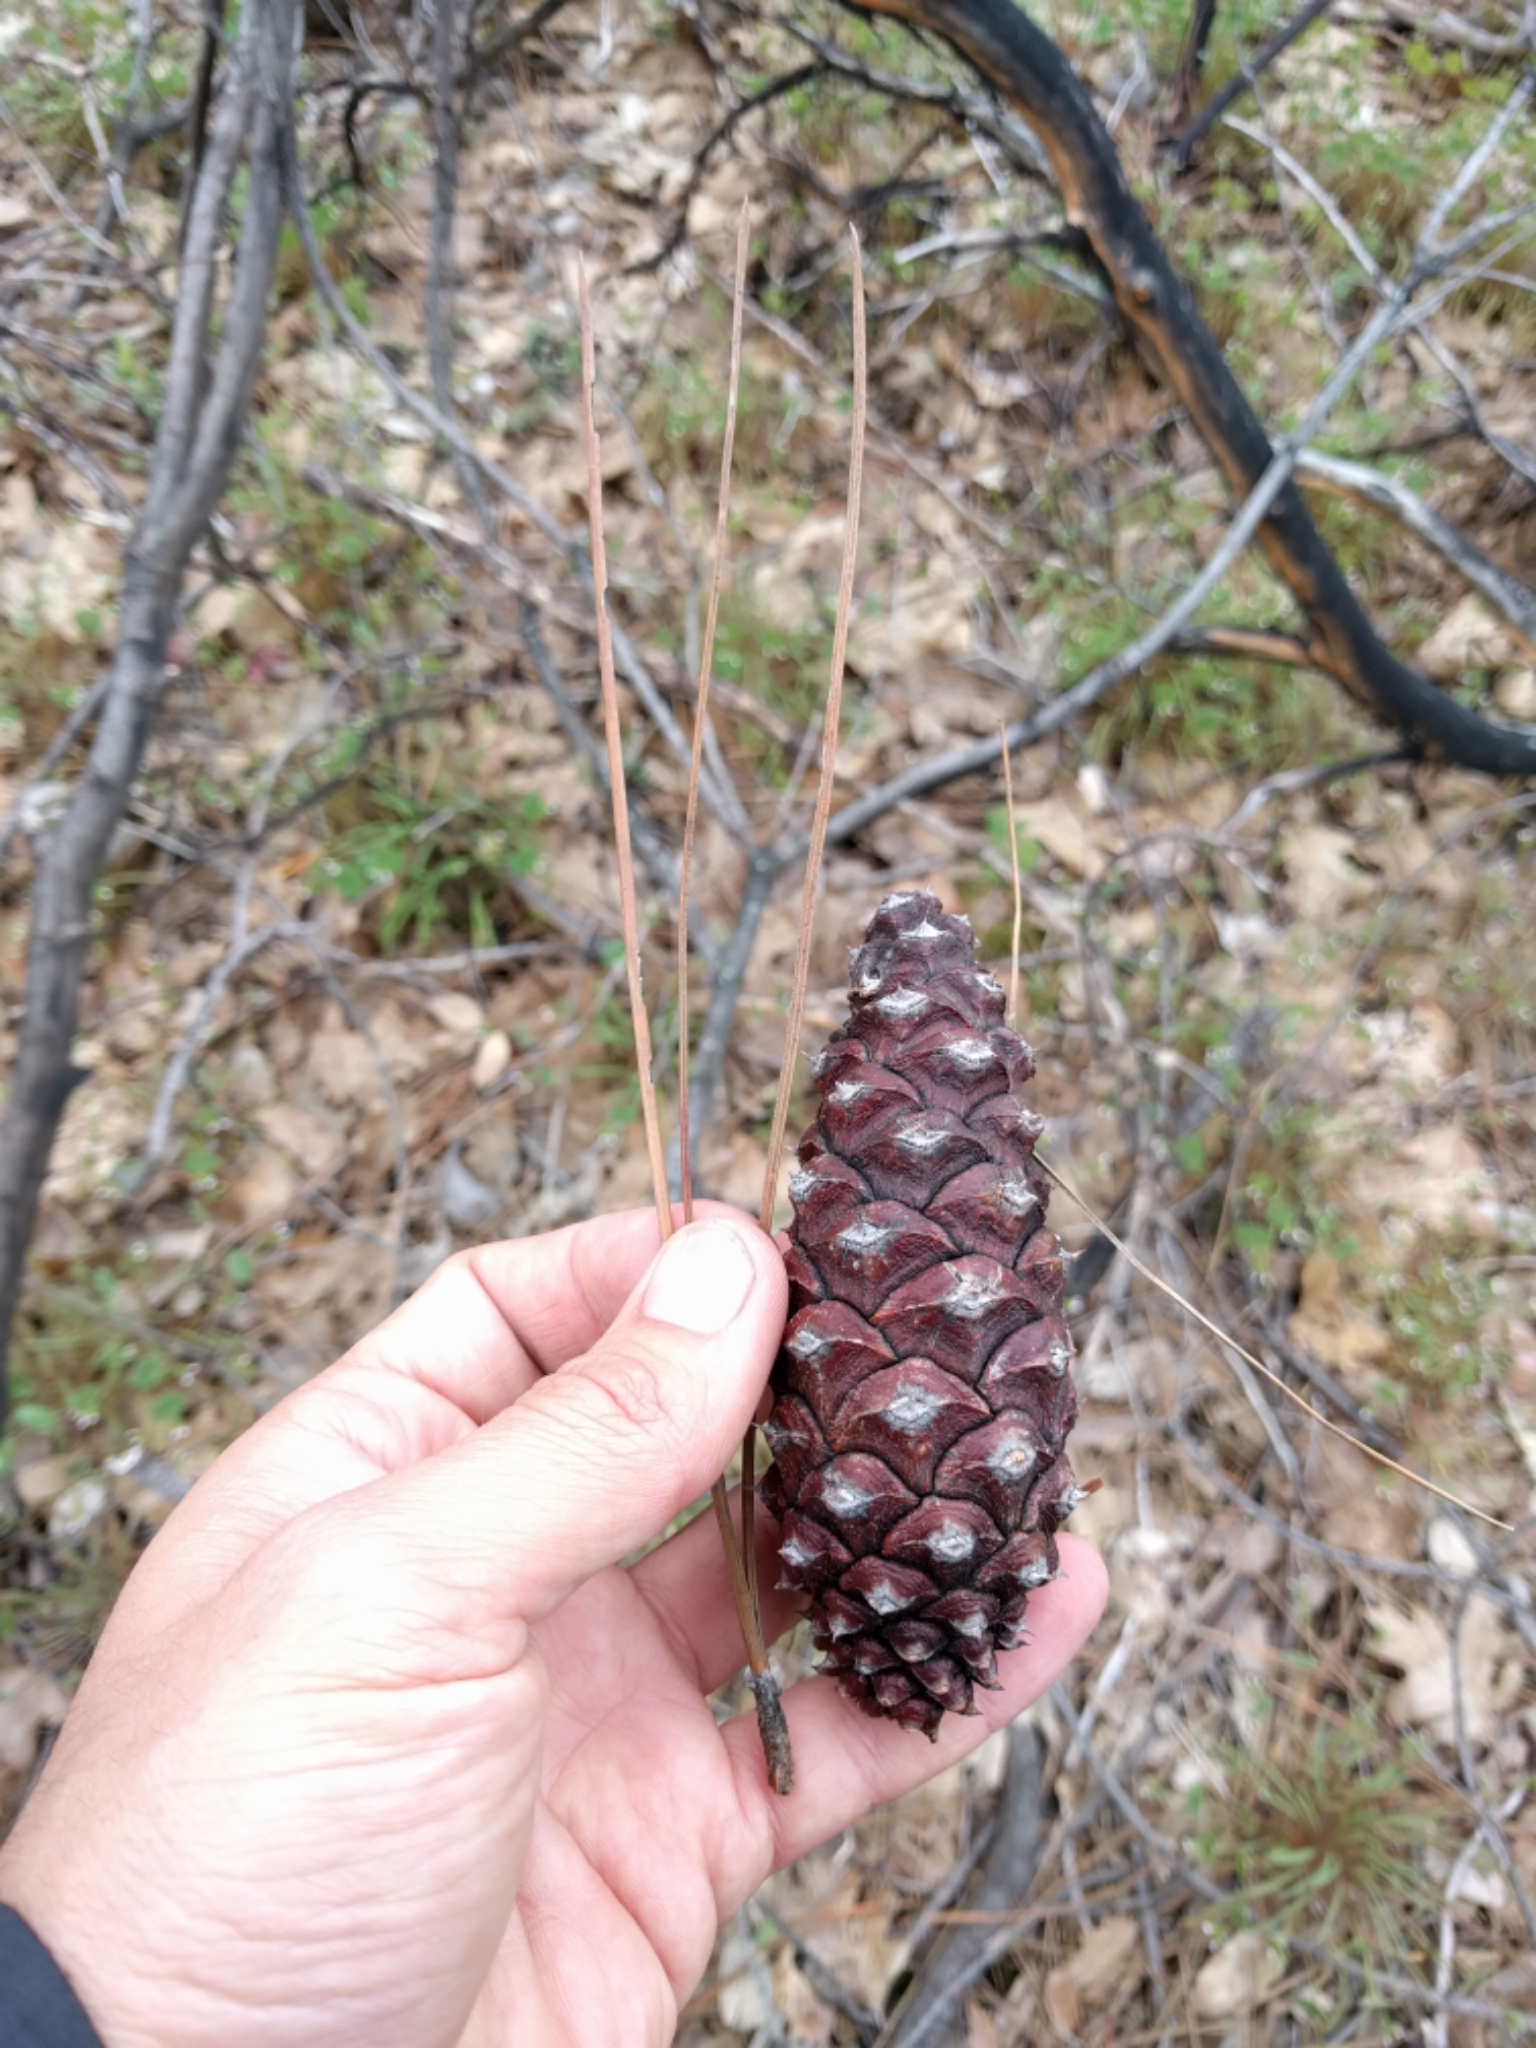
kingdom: Plantae
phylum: Tracheophyta
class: Pinopsida
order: Pinales
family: Pinaceae
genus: Pinus
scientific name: Pinus ponderosa
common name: Western yellow-pine
